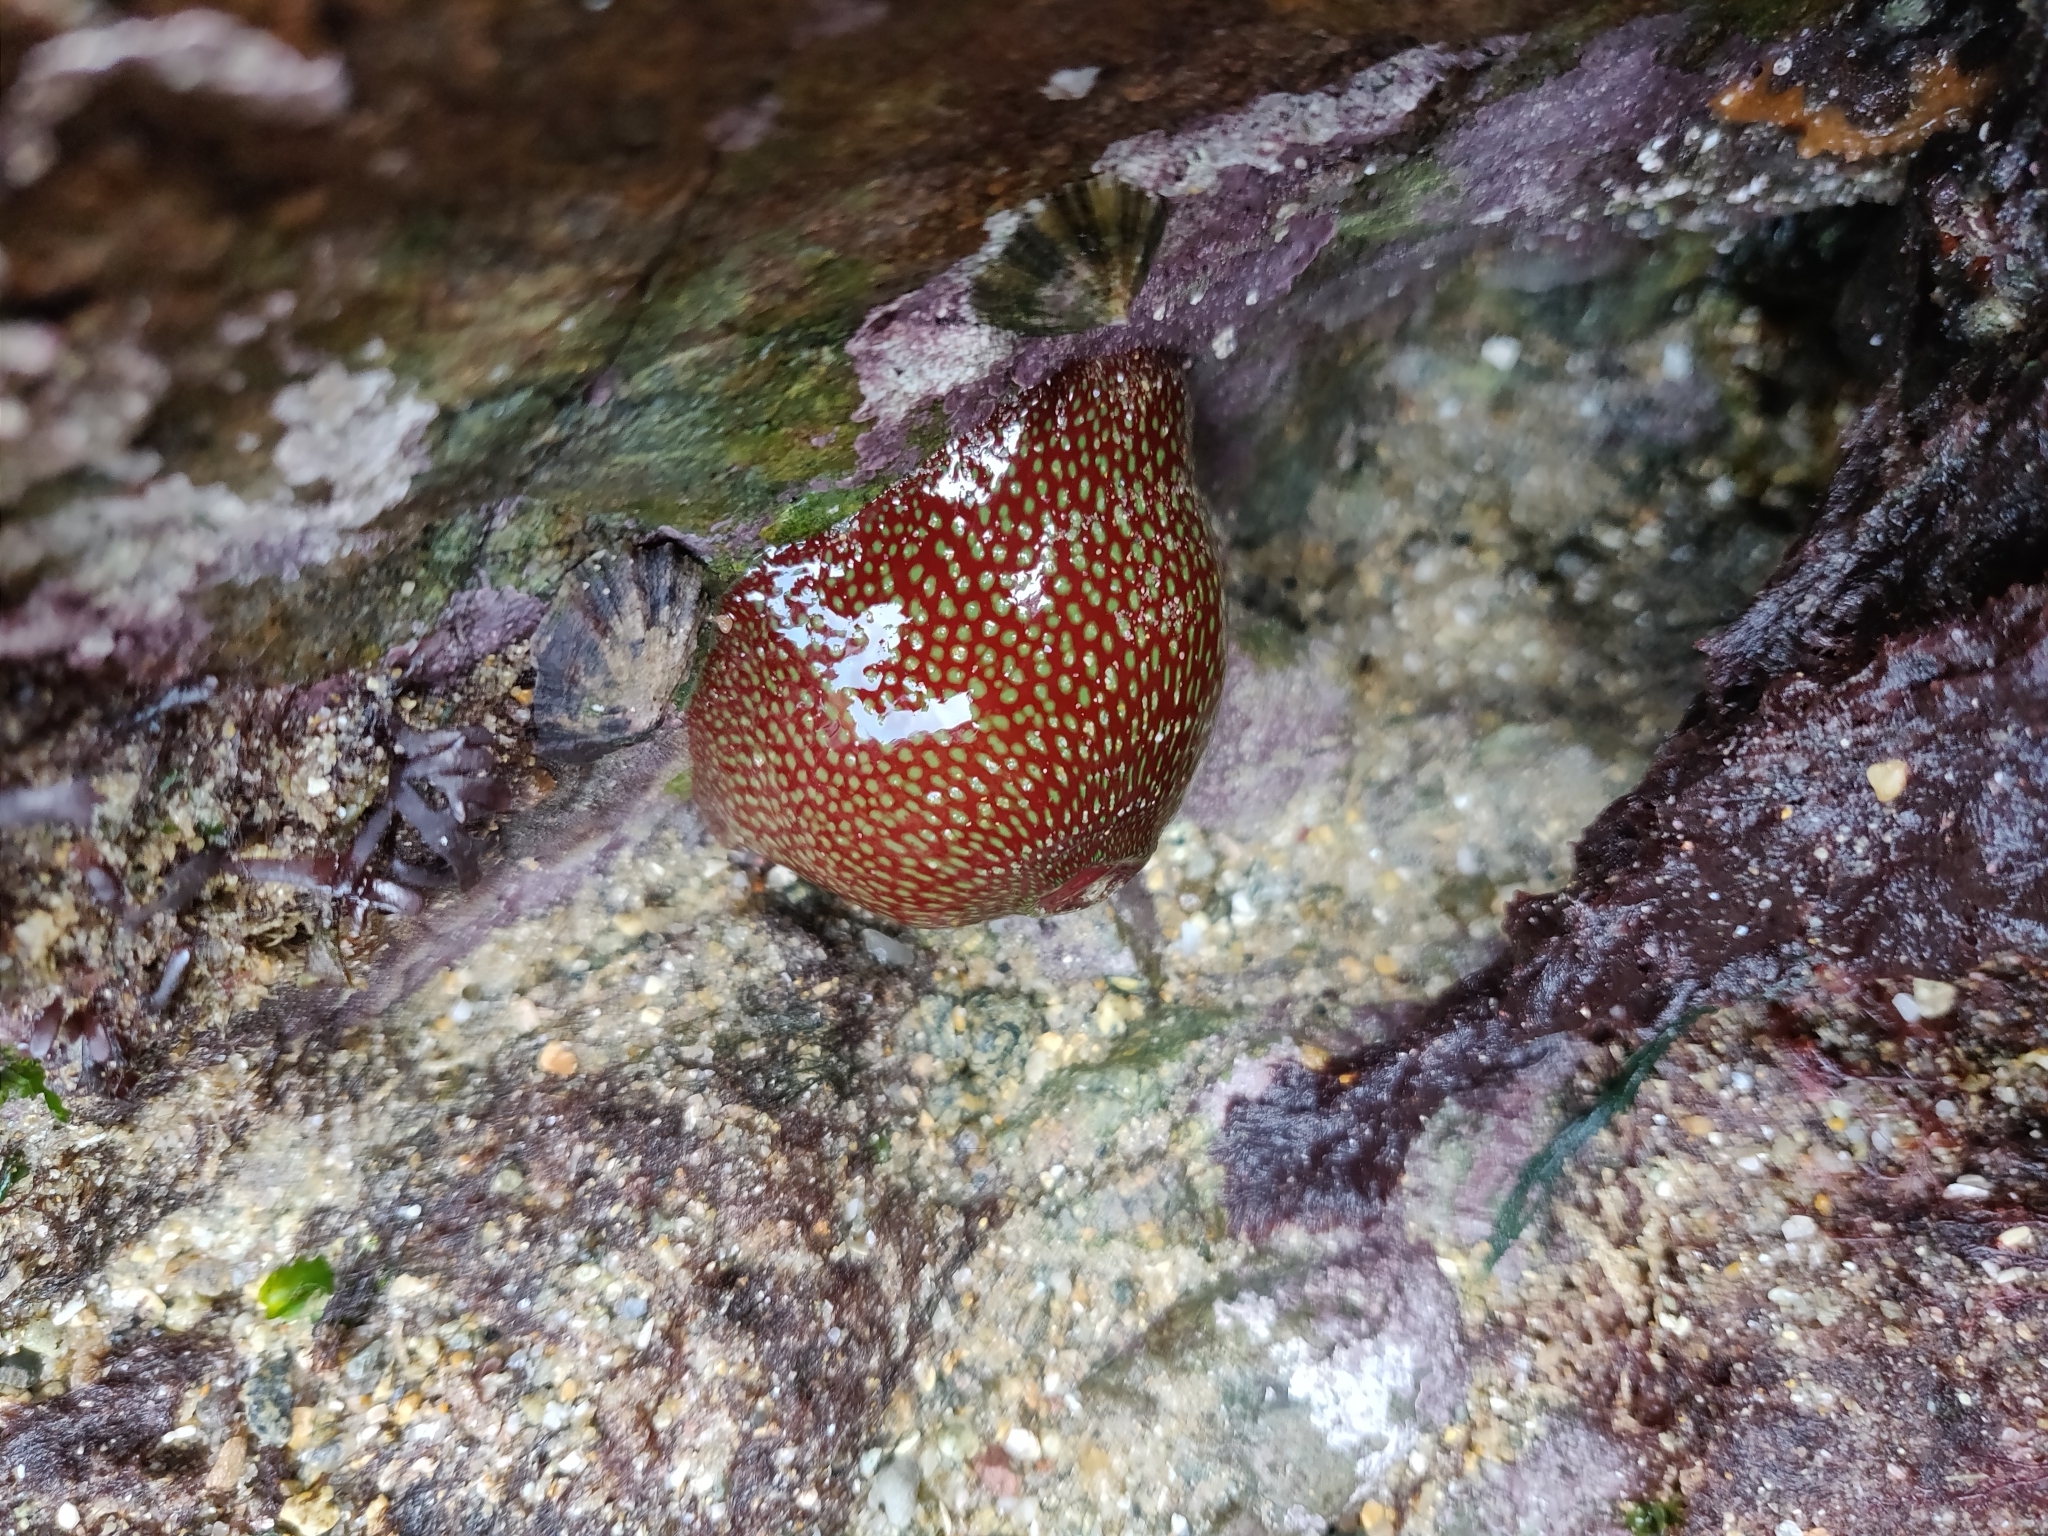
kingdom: Animalia
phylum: Cnidaria
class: Anthozoa
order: Actiniaria
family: Actiniidae
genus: Actinia
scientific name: Actinia fragacea
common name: Strawberry anemone
